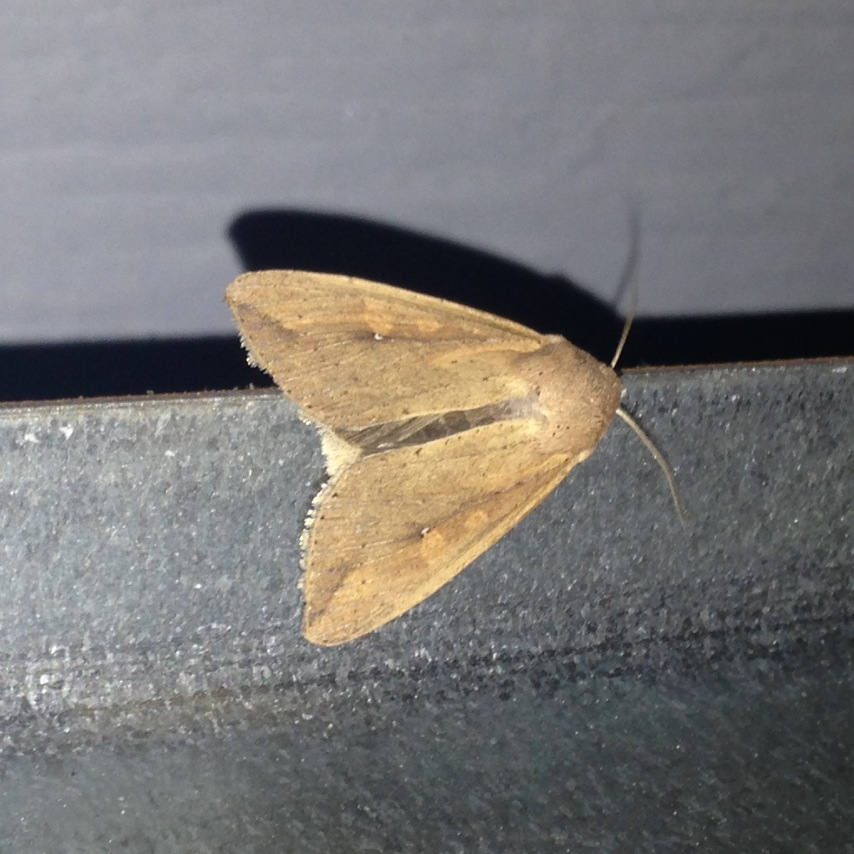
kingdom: Animalia
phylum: Arthropoda
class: Insecta
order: Lepidoptera
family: Noctuidae
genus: Mythimna
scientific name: Mythimna unipuncta
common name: White-speck
